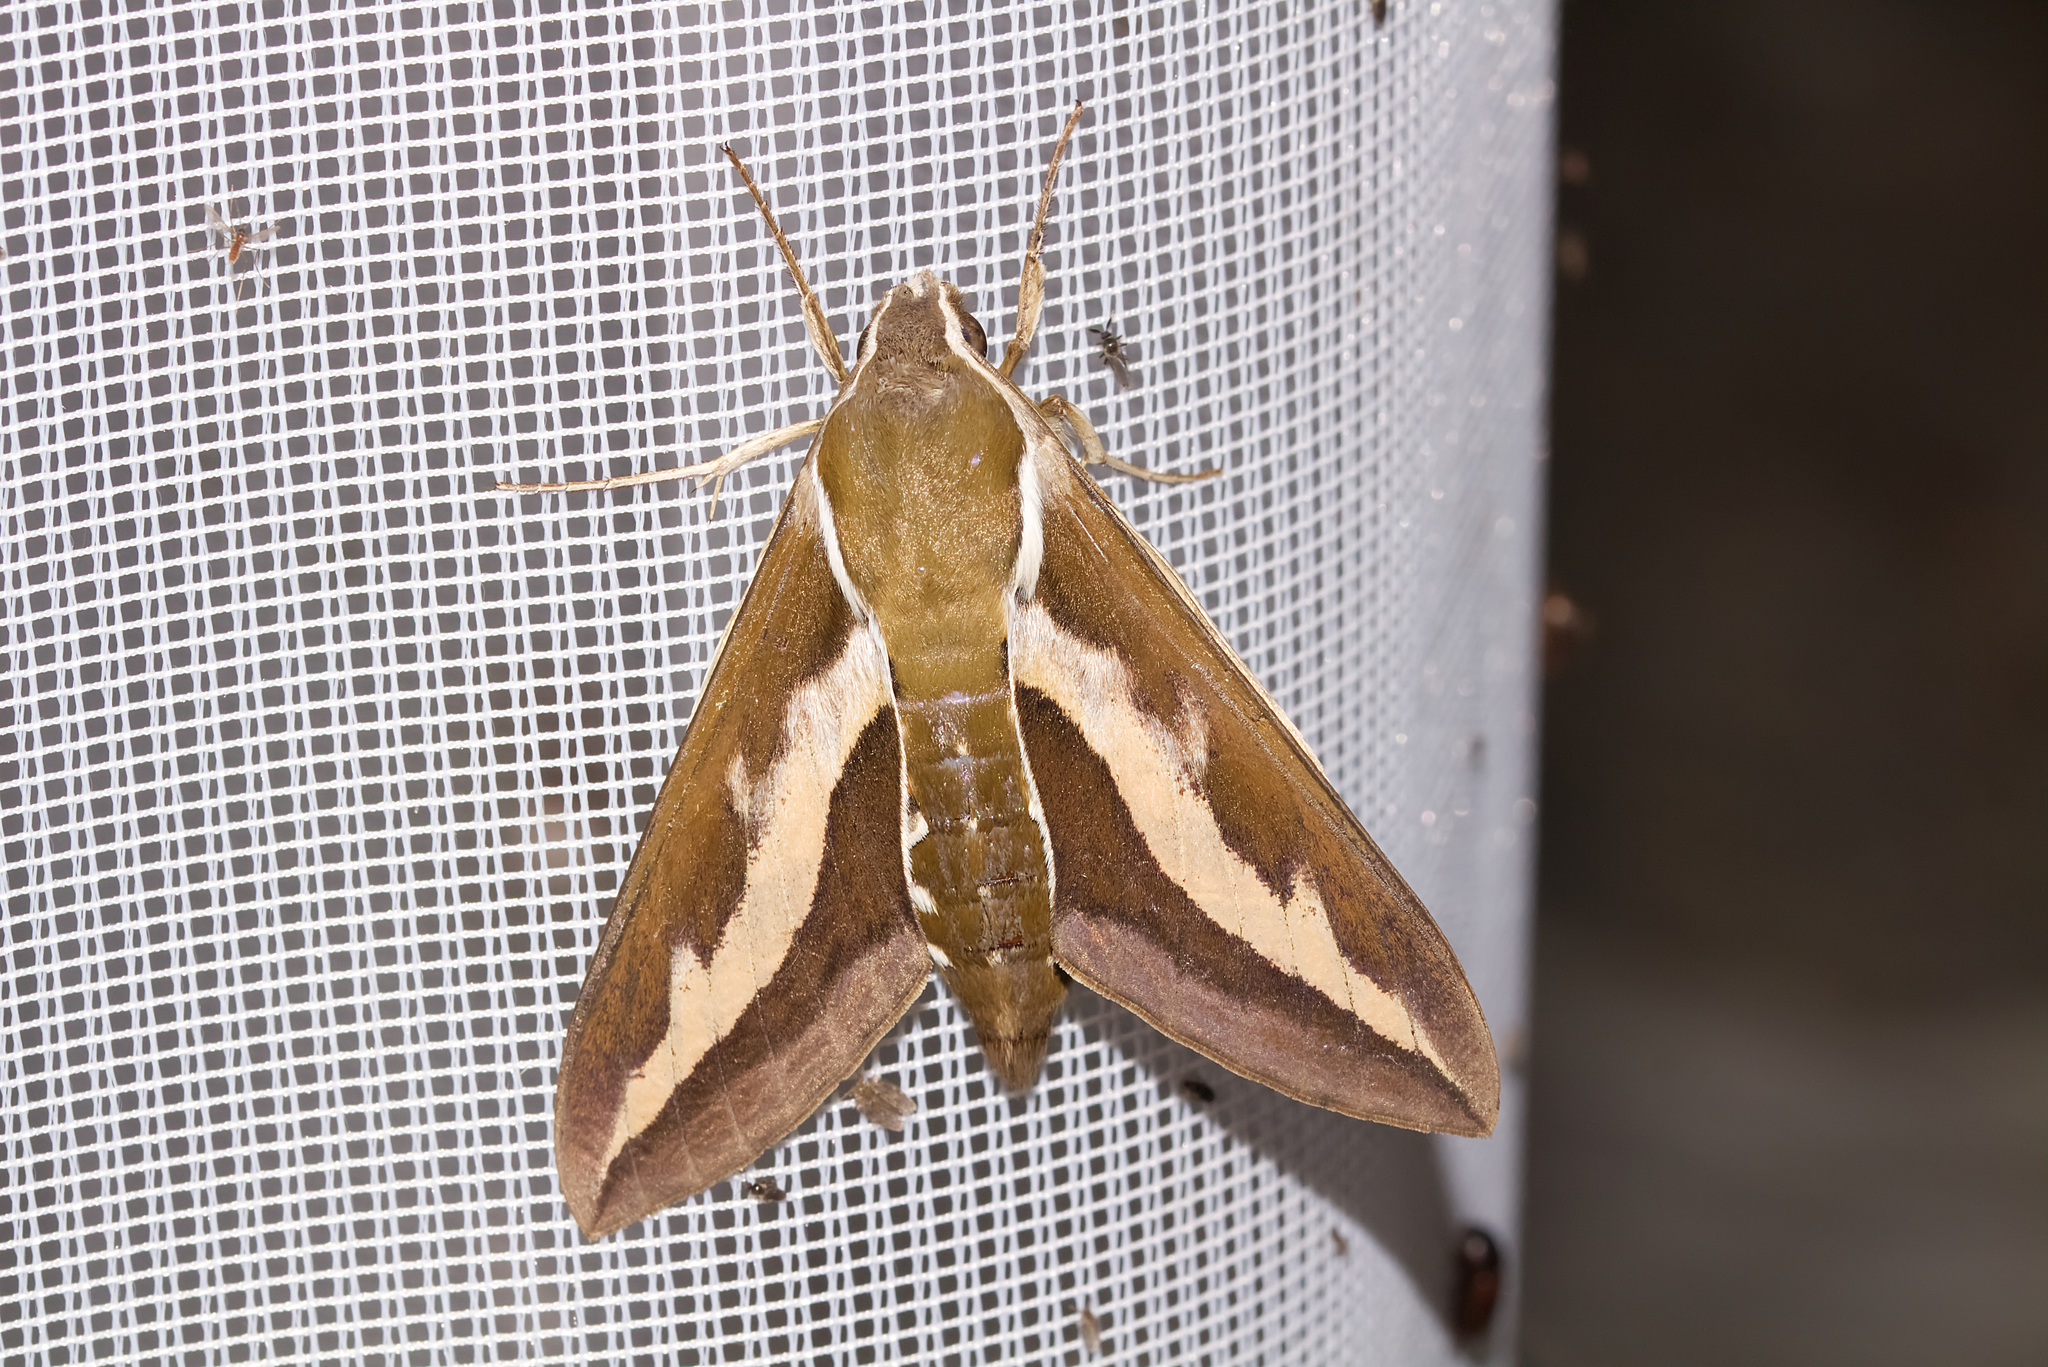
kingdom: Animalia
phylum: Arthropoda
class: Insecta
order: Lepidoptera
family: Sphingidae
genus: Hyles
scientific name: Hyles gallii
